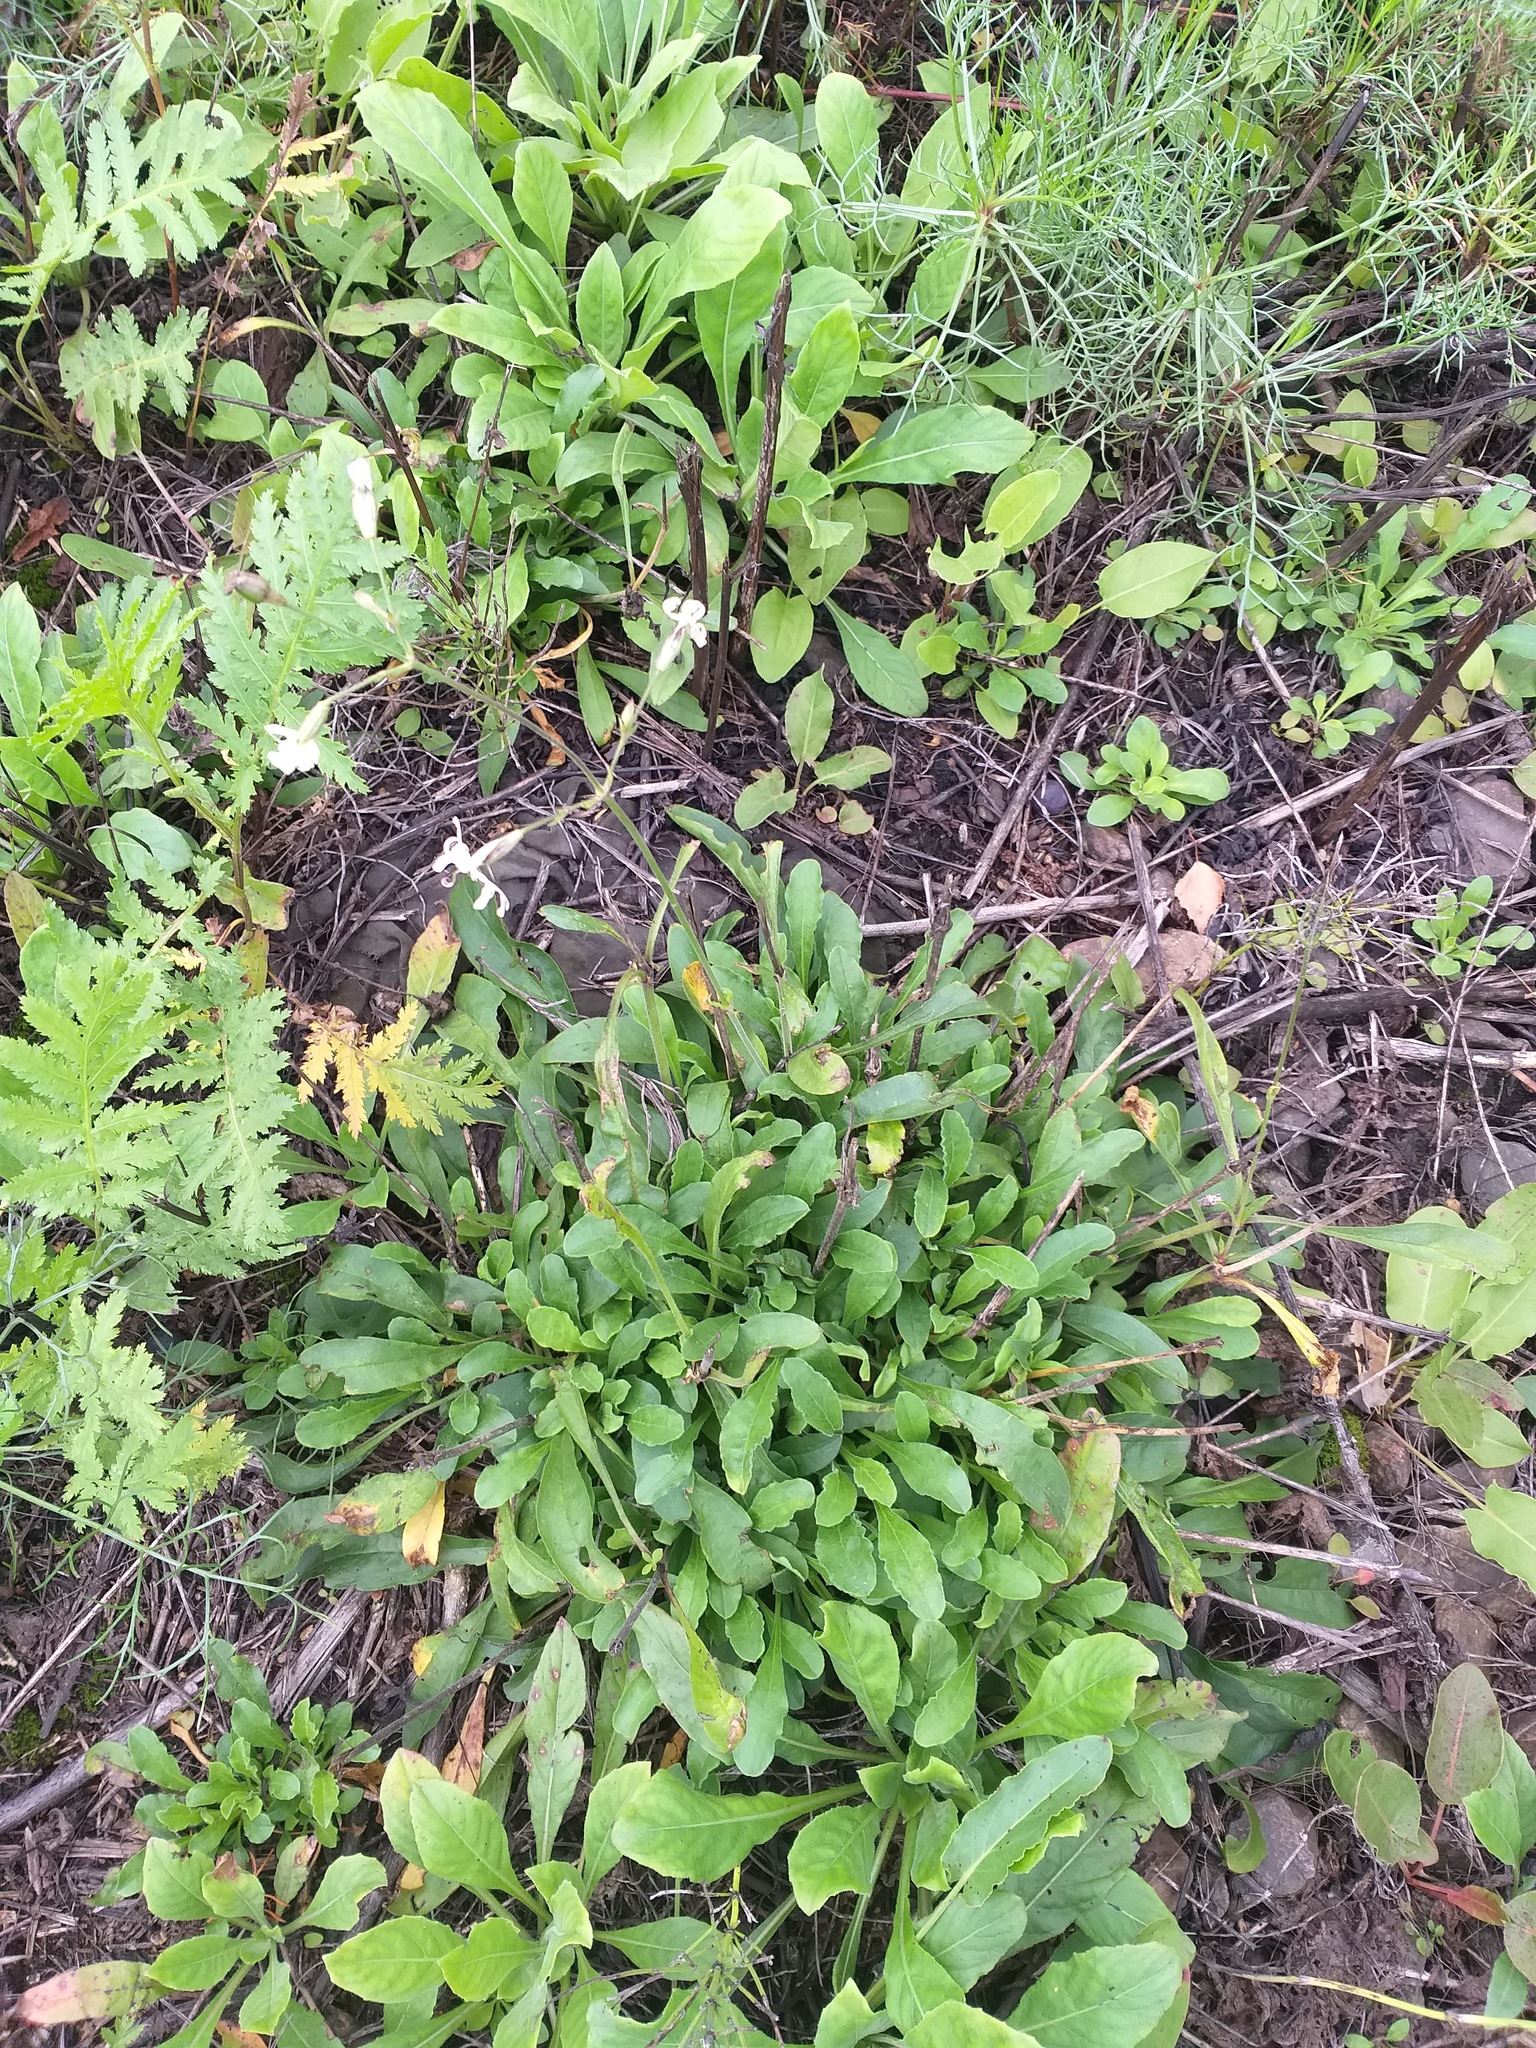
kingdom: Plantae
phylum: Tracheophyta
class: Magnoliopsida
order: Caryophyllales
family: Caryophyllaceae
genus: Silene
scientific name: Silene nutans
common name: Nottingham catchfly
